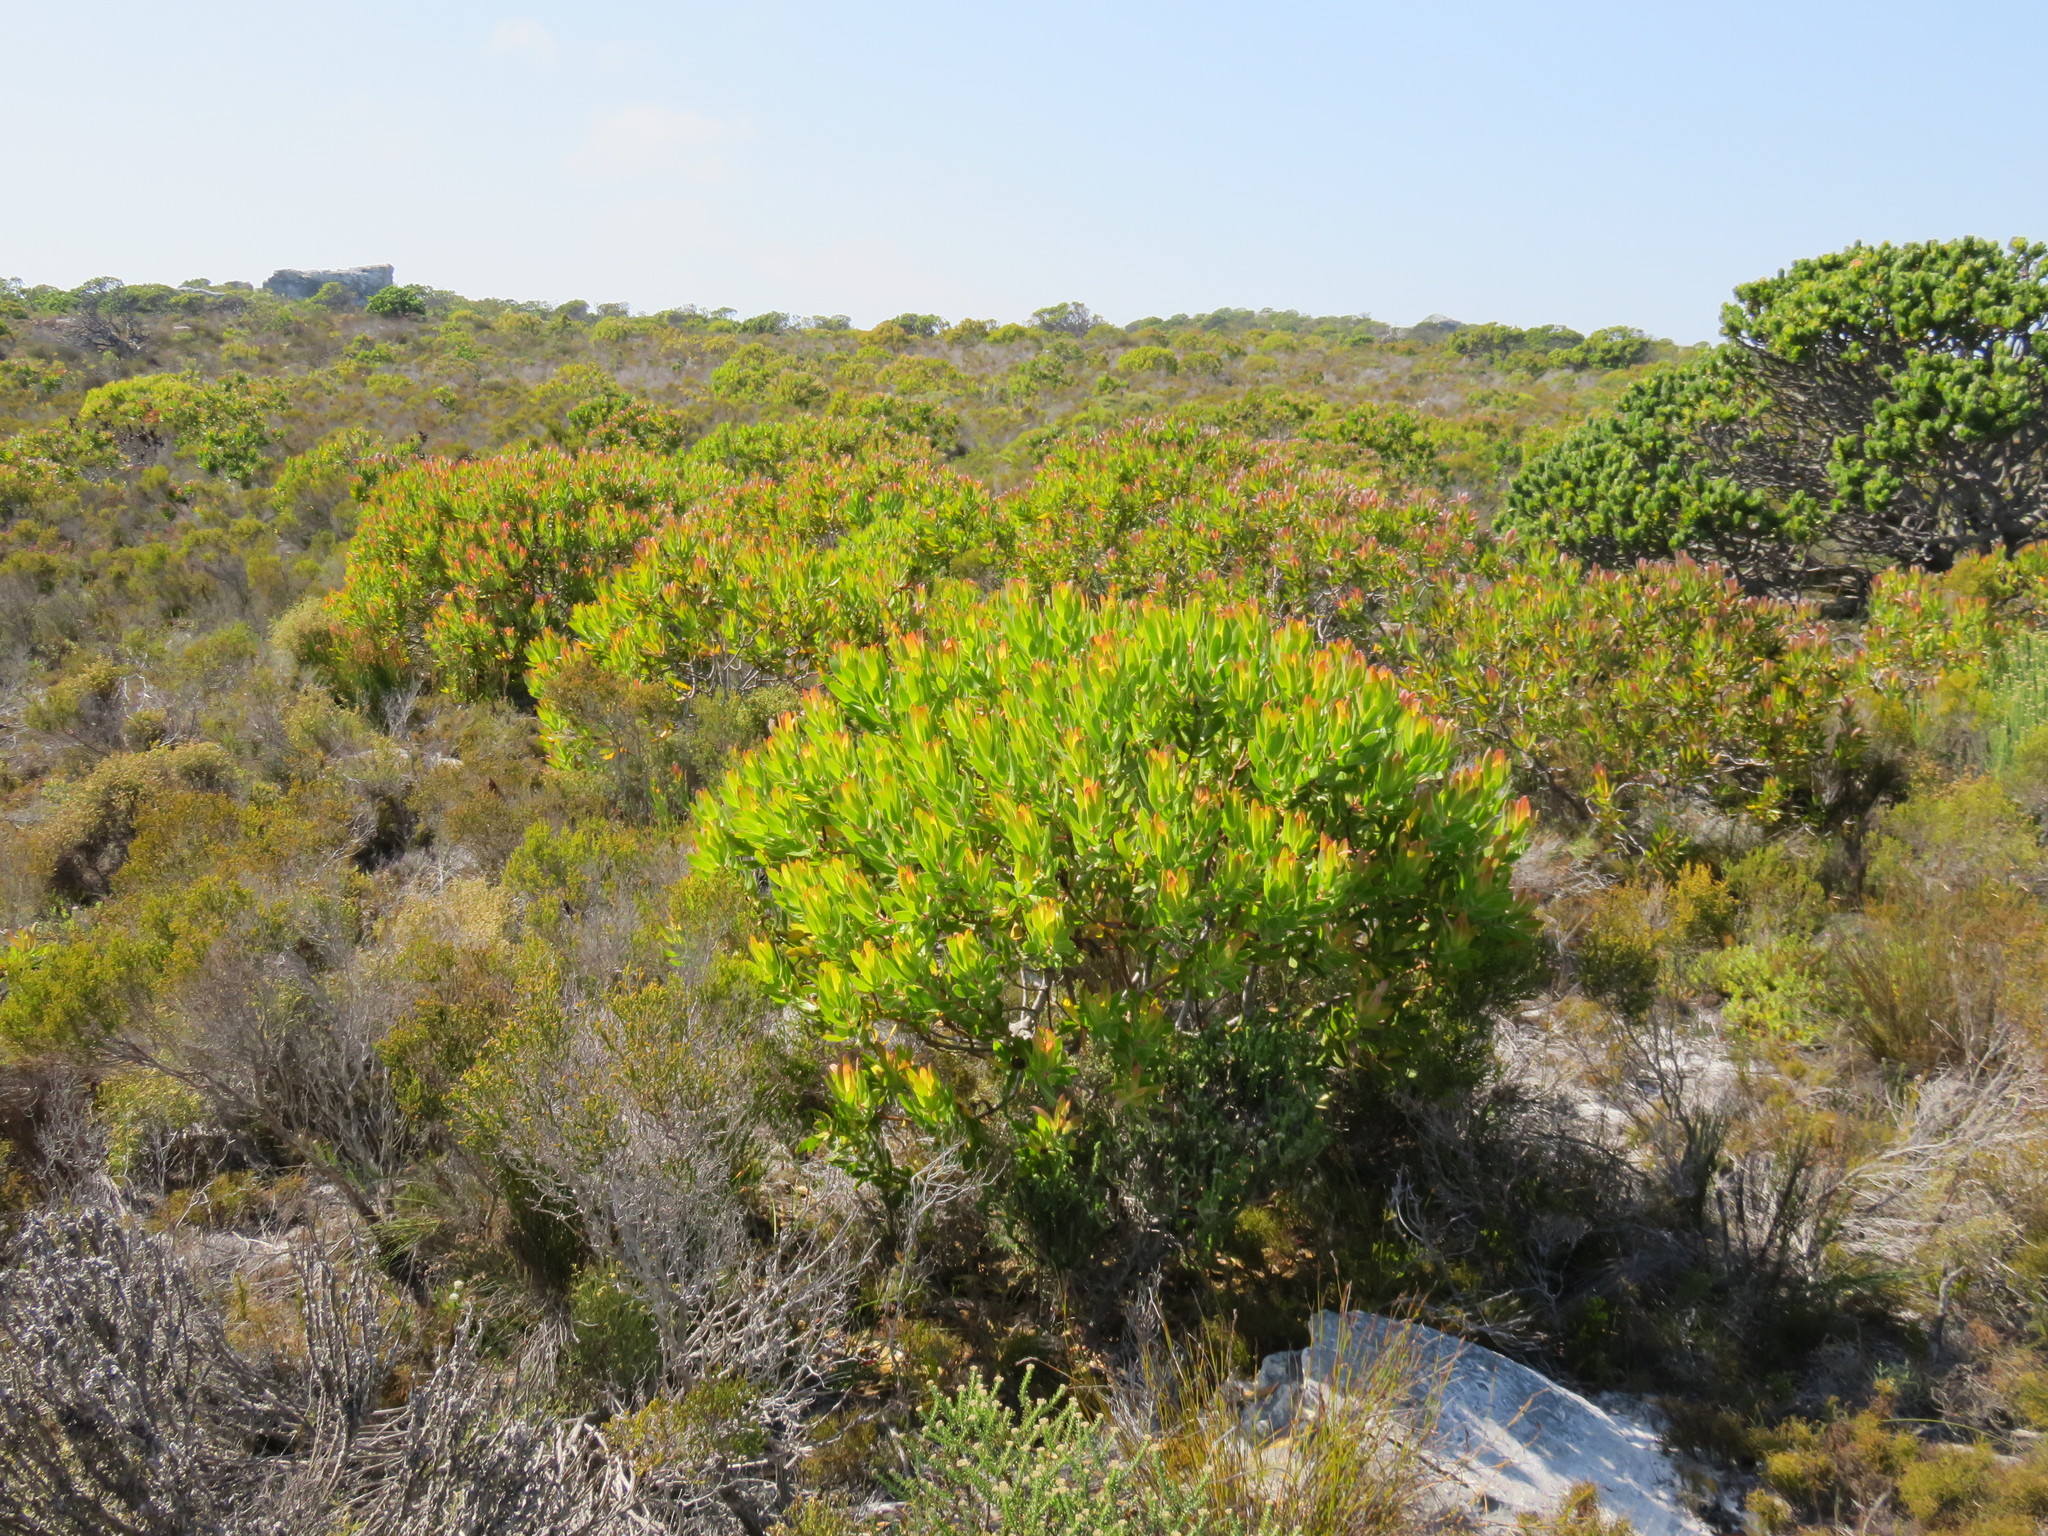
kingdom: Plantae
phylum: Tracheophyta
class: Magnoliopsida
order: Proteales
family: Proteaceae
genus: Leucadendron
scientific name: Leucadendron laureolum
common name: Golden sunshinebush
